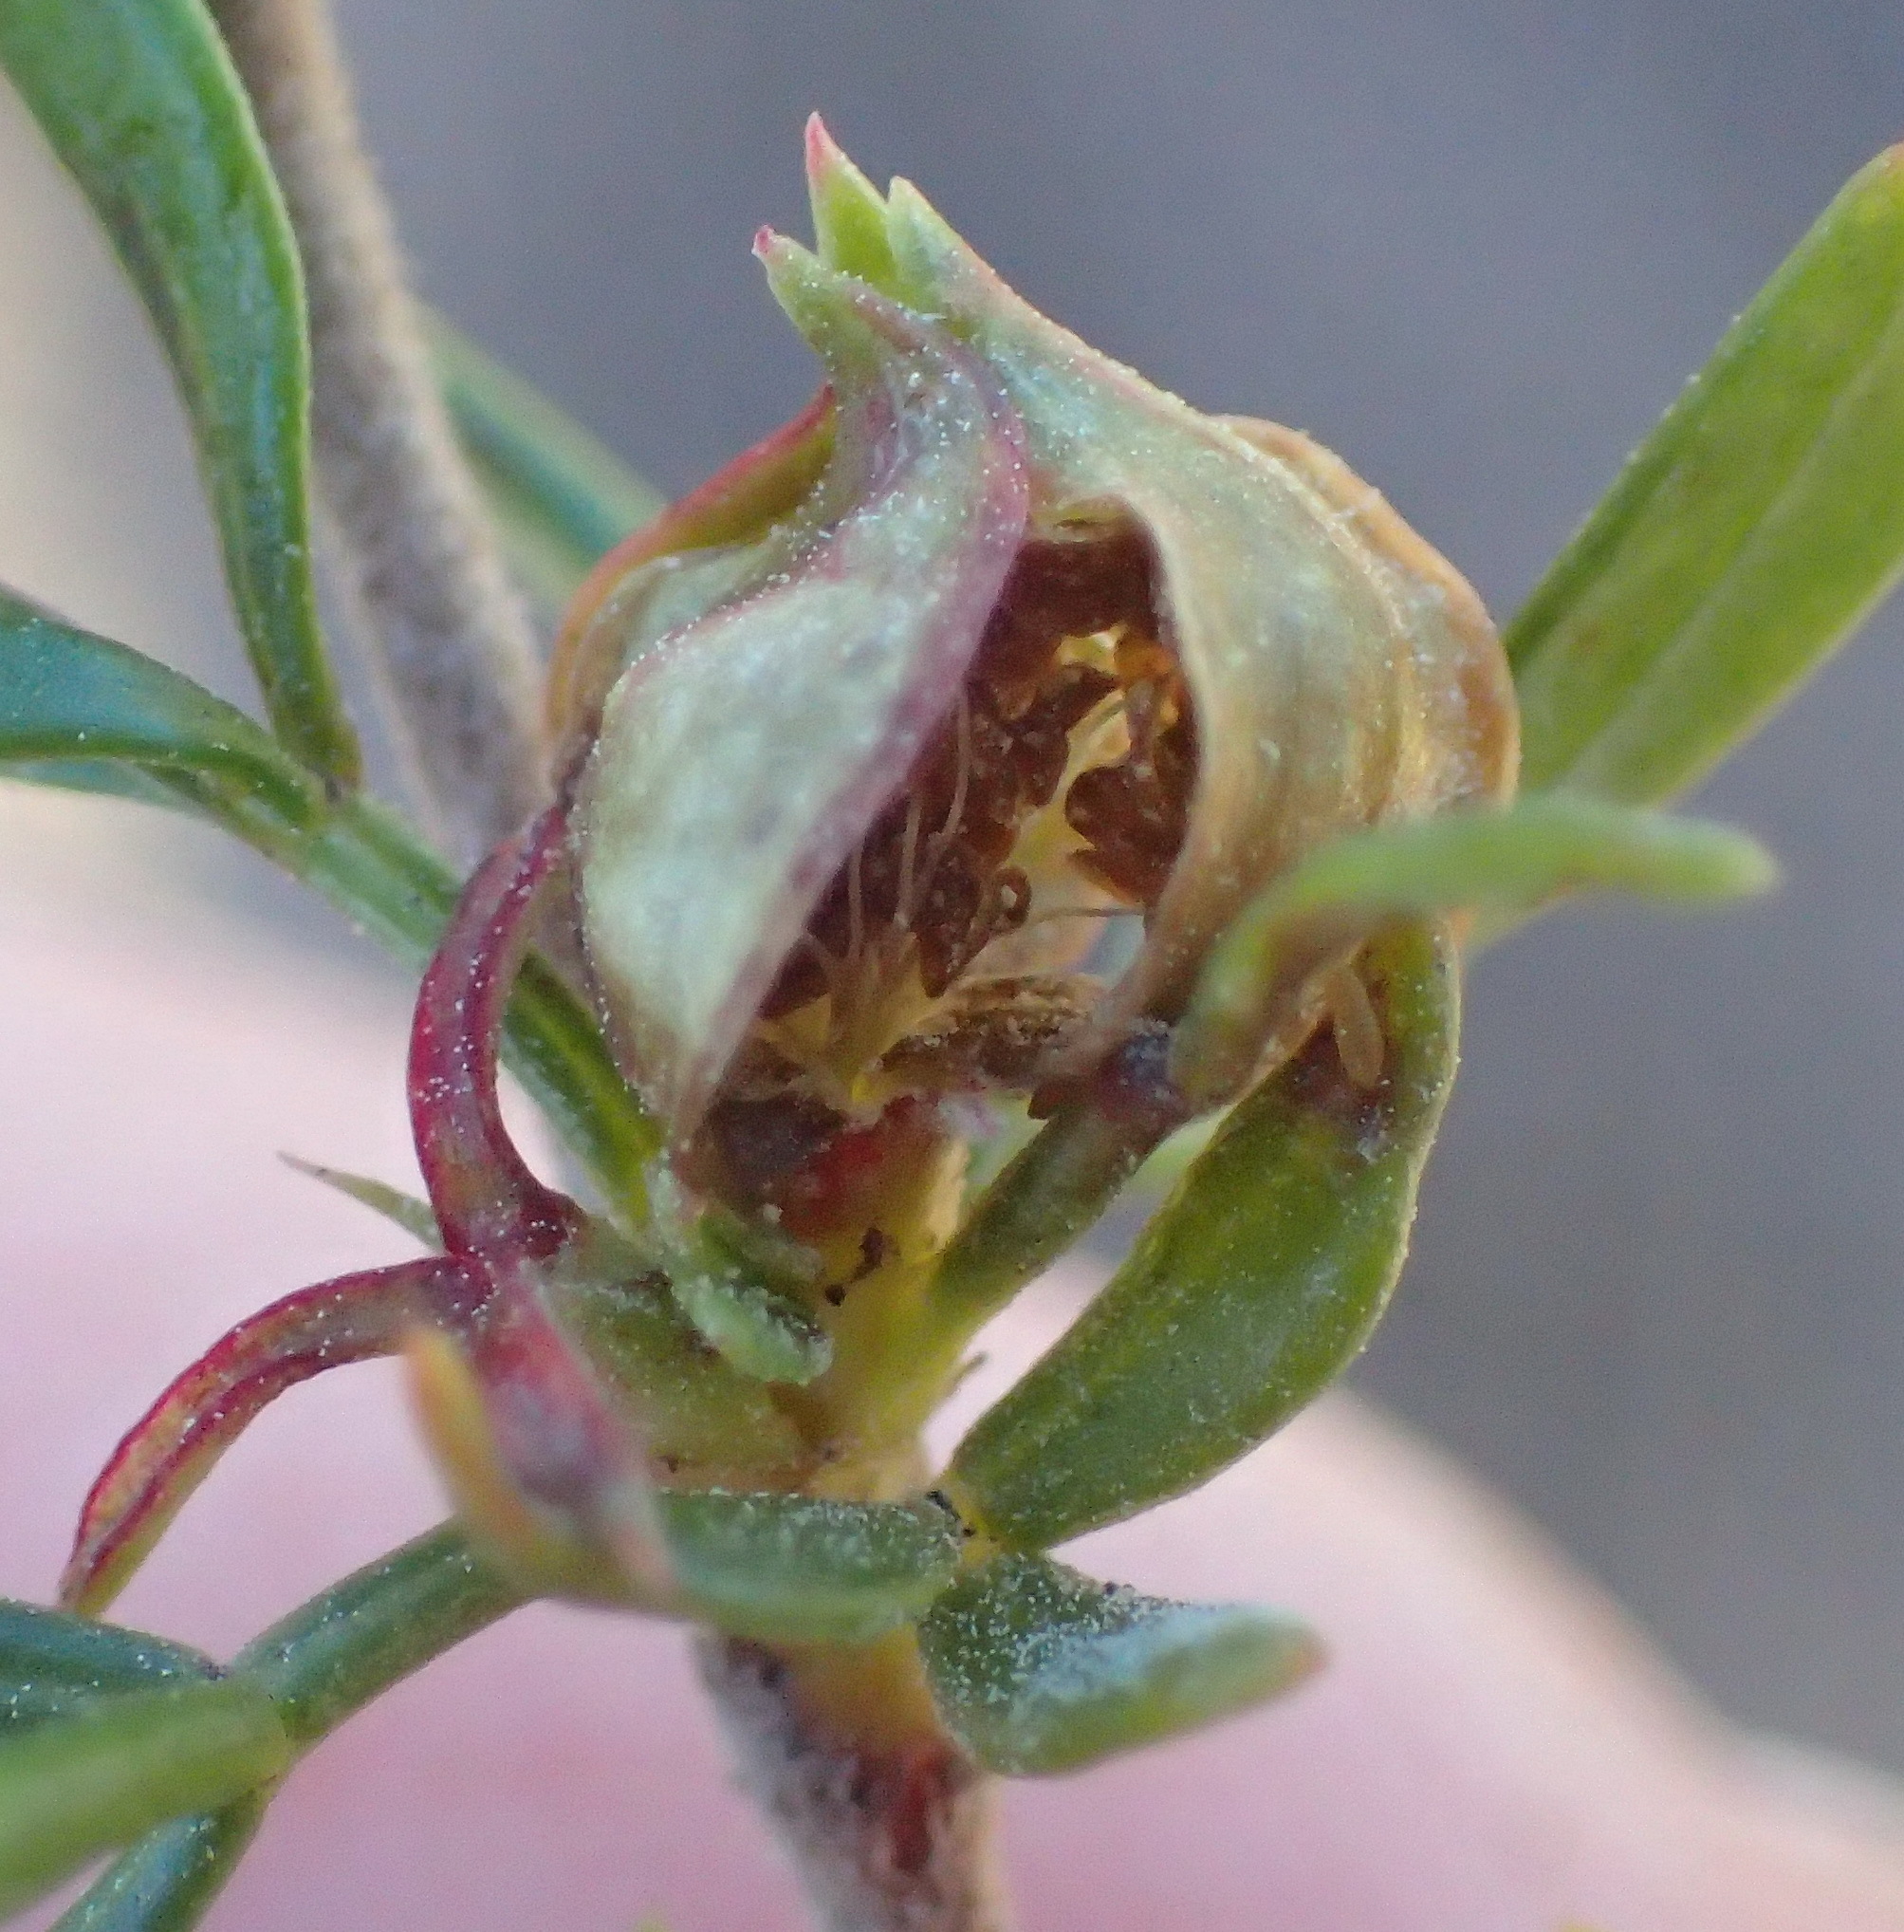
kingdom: Plantae
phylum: Tracheophyta
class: Magnoliopsida
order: Rosales
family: Rosaceae
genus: Cliffortia
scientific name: Cliffortia falcata
